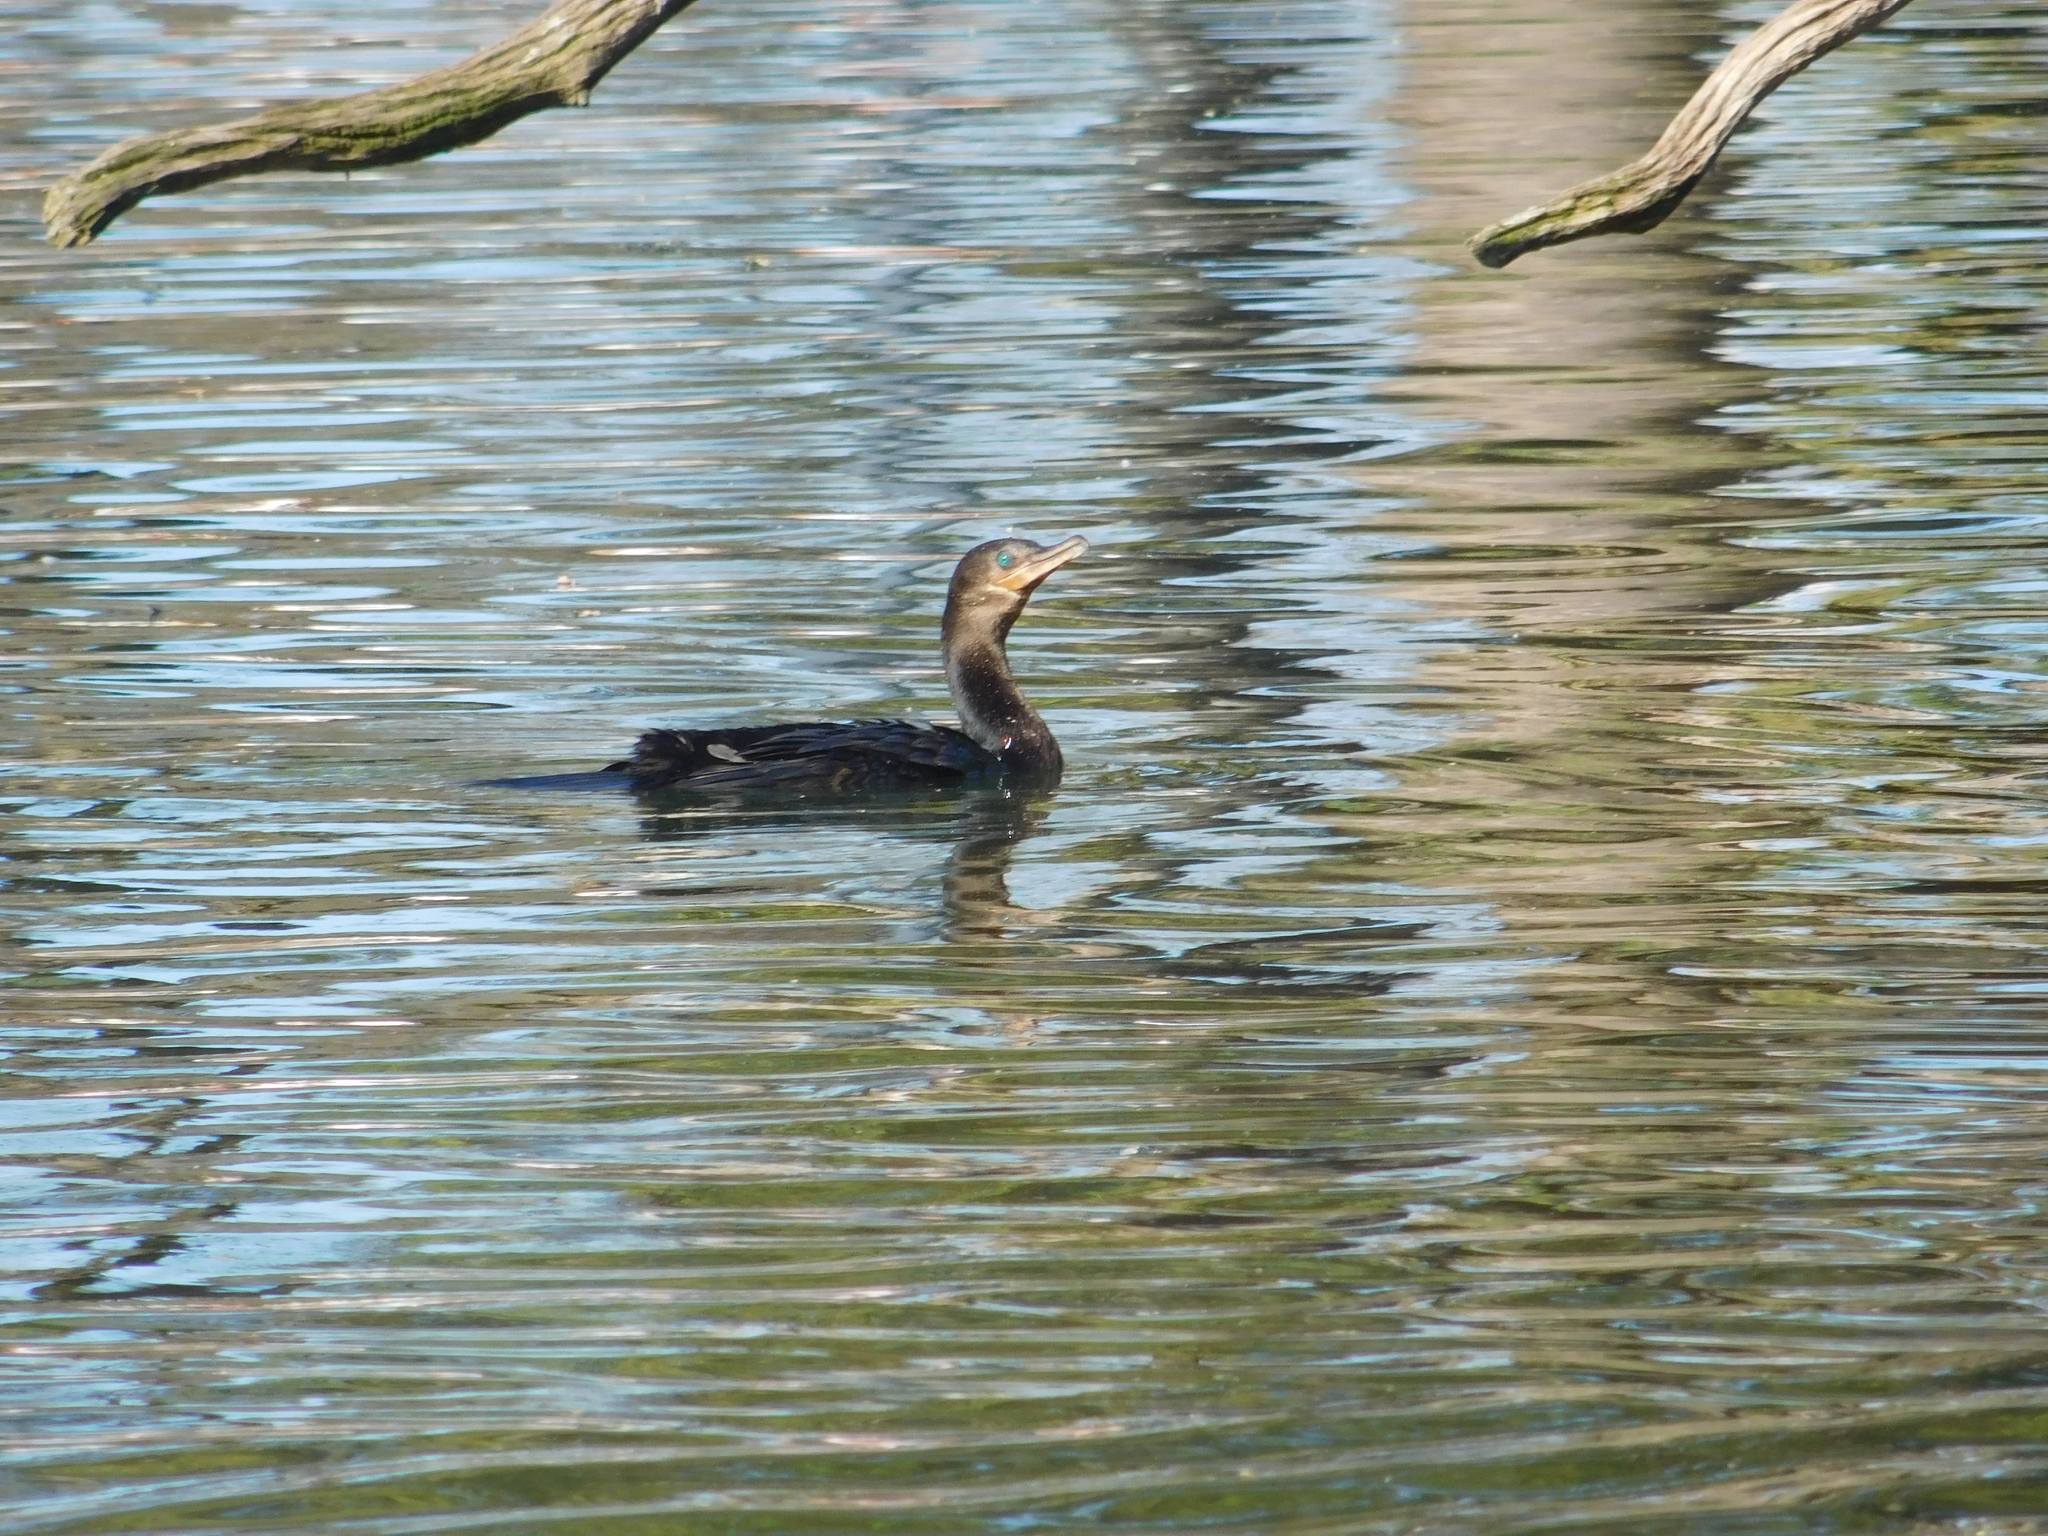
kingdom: Animalia
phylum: Chordata
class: Aves
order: Suliformes
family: Phalacrocoracidae
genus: Phalacrocorax
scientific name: Phalacrocorax brasilianus
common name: Neotropic cormorant
